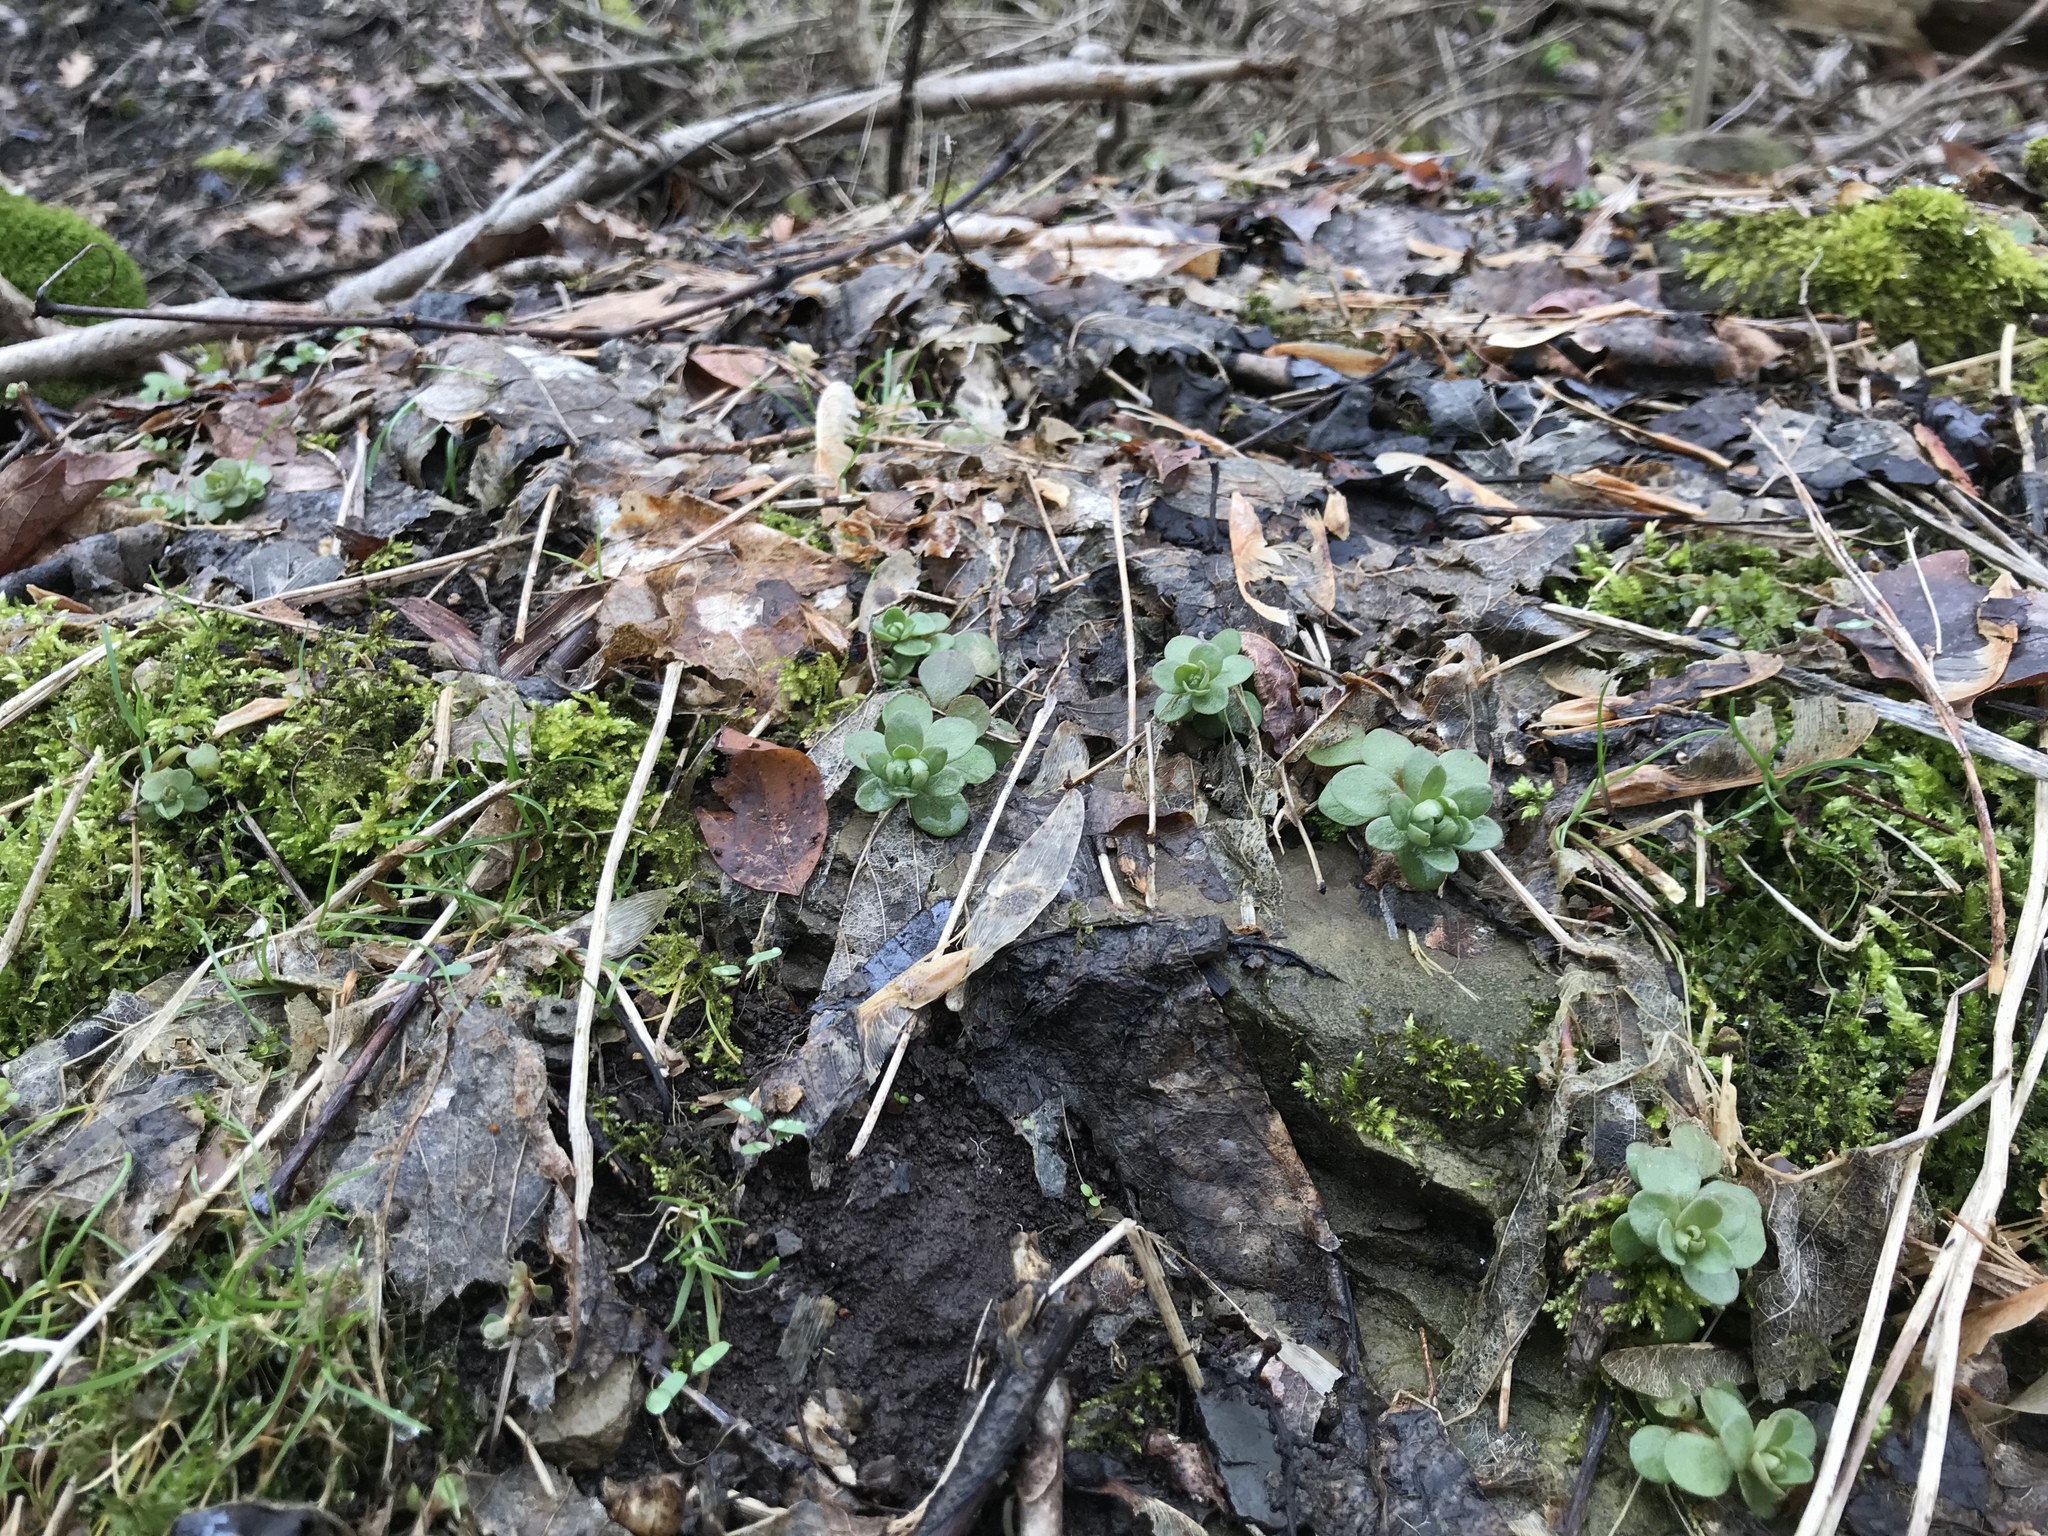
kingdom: Plantae
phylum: Tracheophyta
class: Magnoliopsida
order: Saxifragales
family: Crassulaceae
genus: Sedum
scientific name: Sedum ternatum
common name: Wild stonecrop
